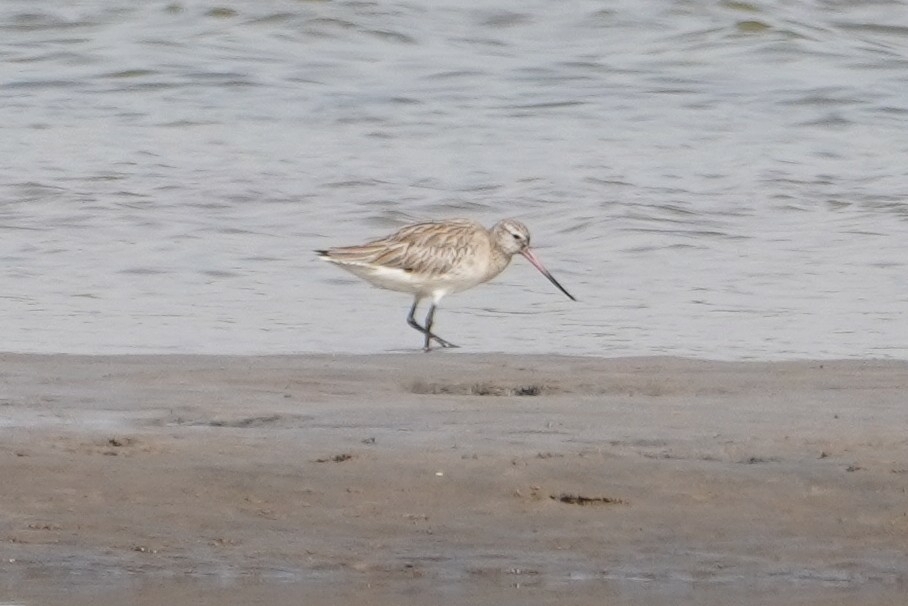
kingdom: Animalia
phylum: Chordata
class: Aves
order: Charadriiformes
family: Scolopacidae
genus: Limosa
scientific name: Limosa lapponica
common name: Bar-tailed godwit
